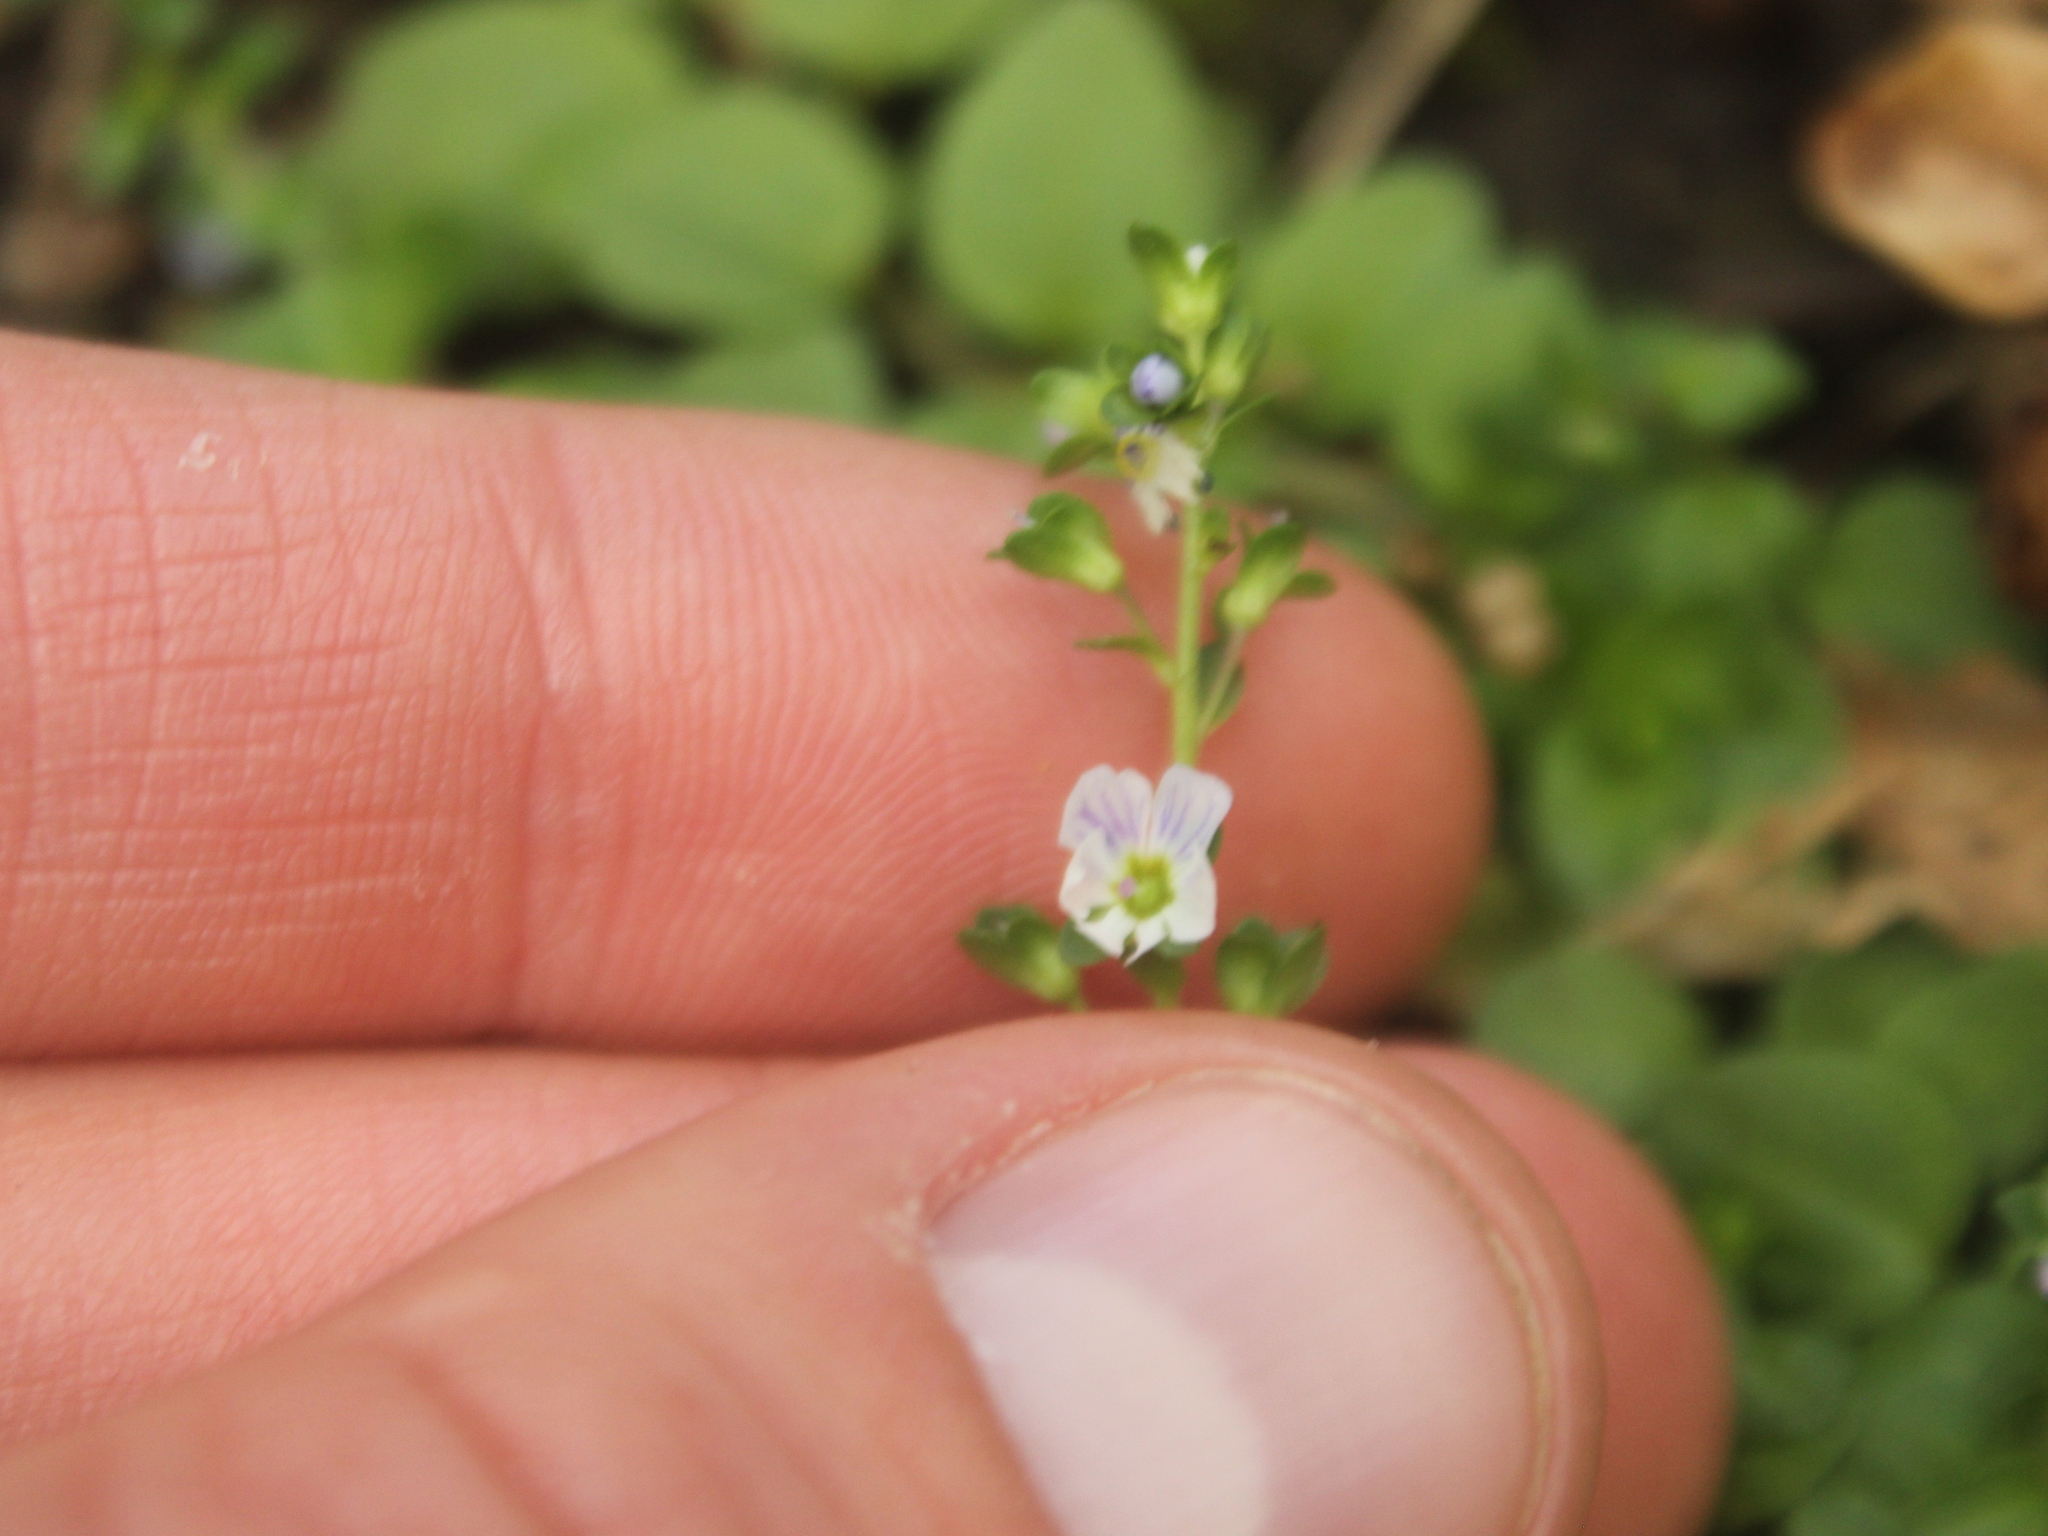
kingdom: Plantae
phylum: Tracheophyta
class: Magnoliopsida
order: Lamiales
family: Plantaginaceae
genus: Veronica
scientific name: Veronica serpyllifolia
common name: Thyme-leaved speedwell
